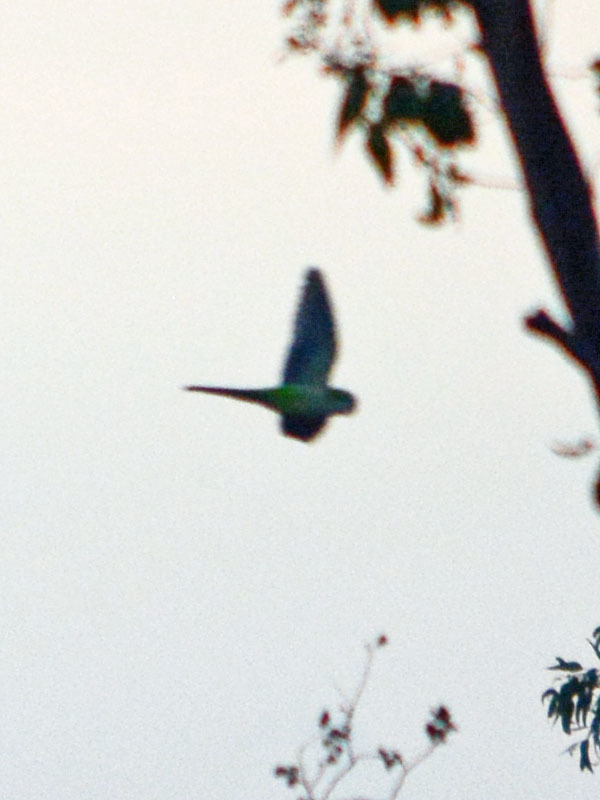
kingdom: Animalia
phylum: Chordata
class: Aves
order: Psittaciformes
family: Psittacidae
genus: Myiopsitta
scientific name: Myiopsitta monachus
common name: Monk parakeet
